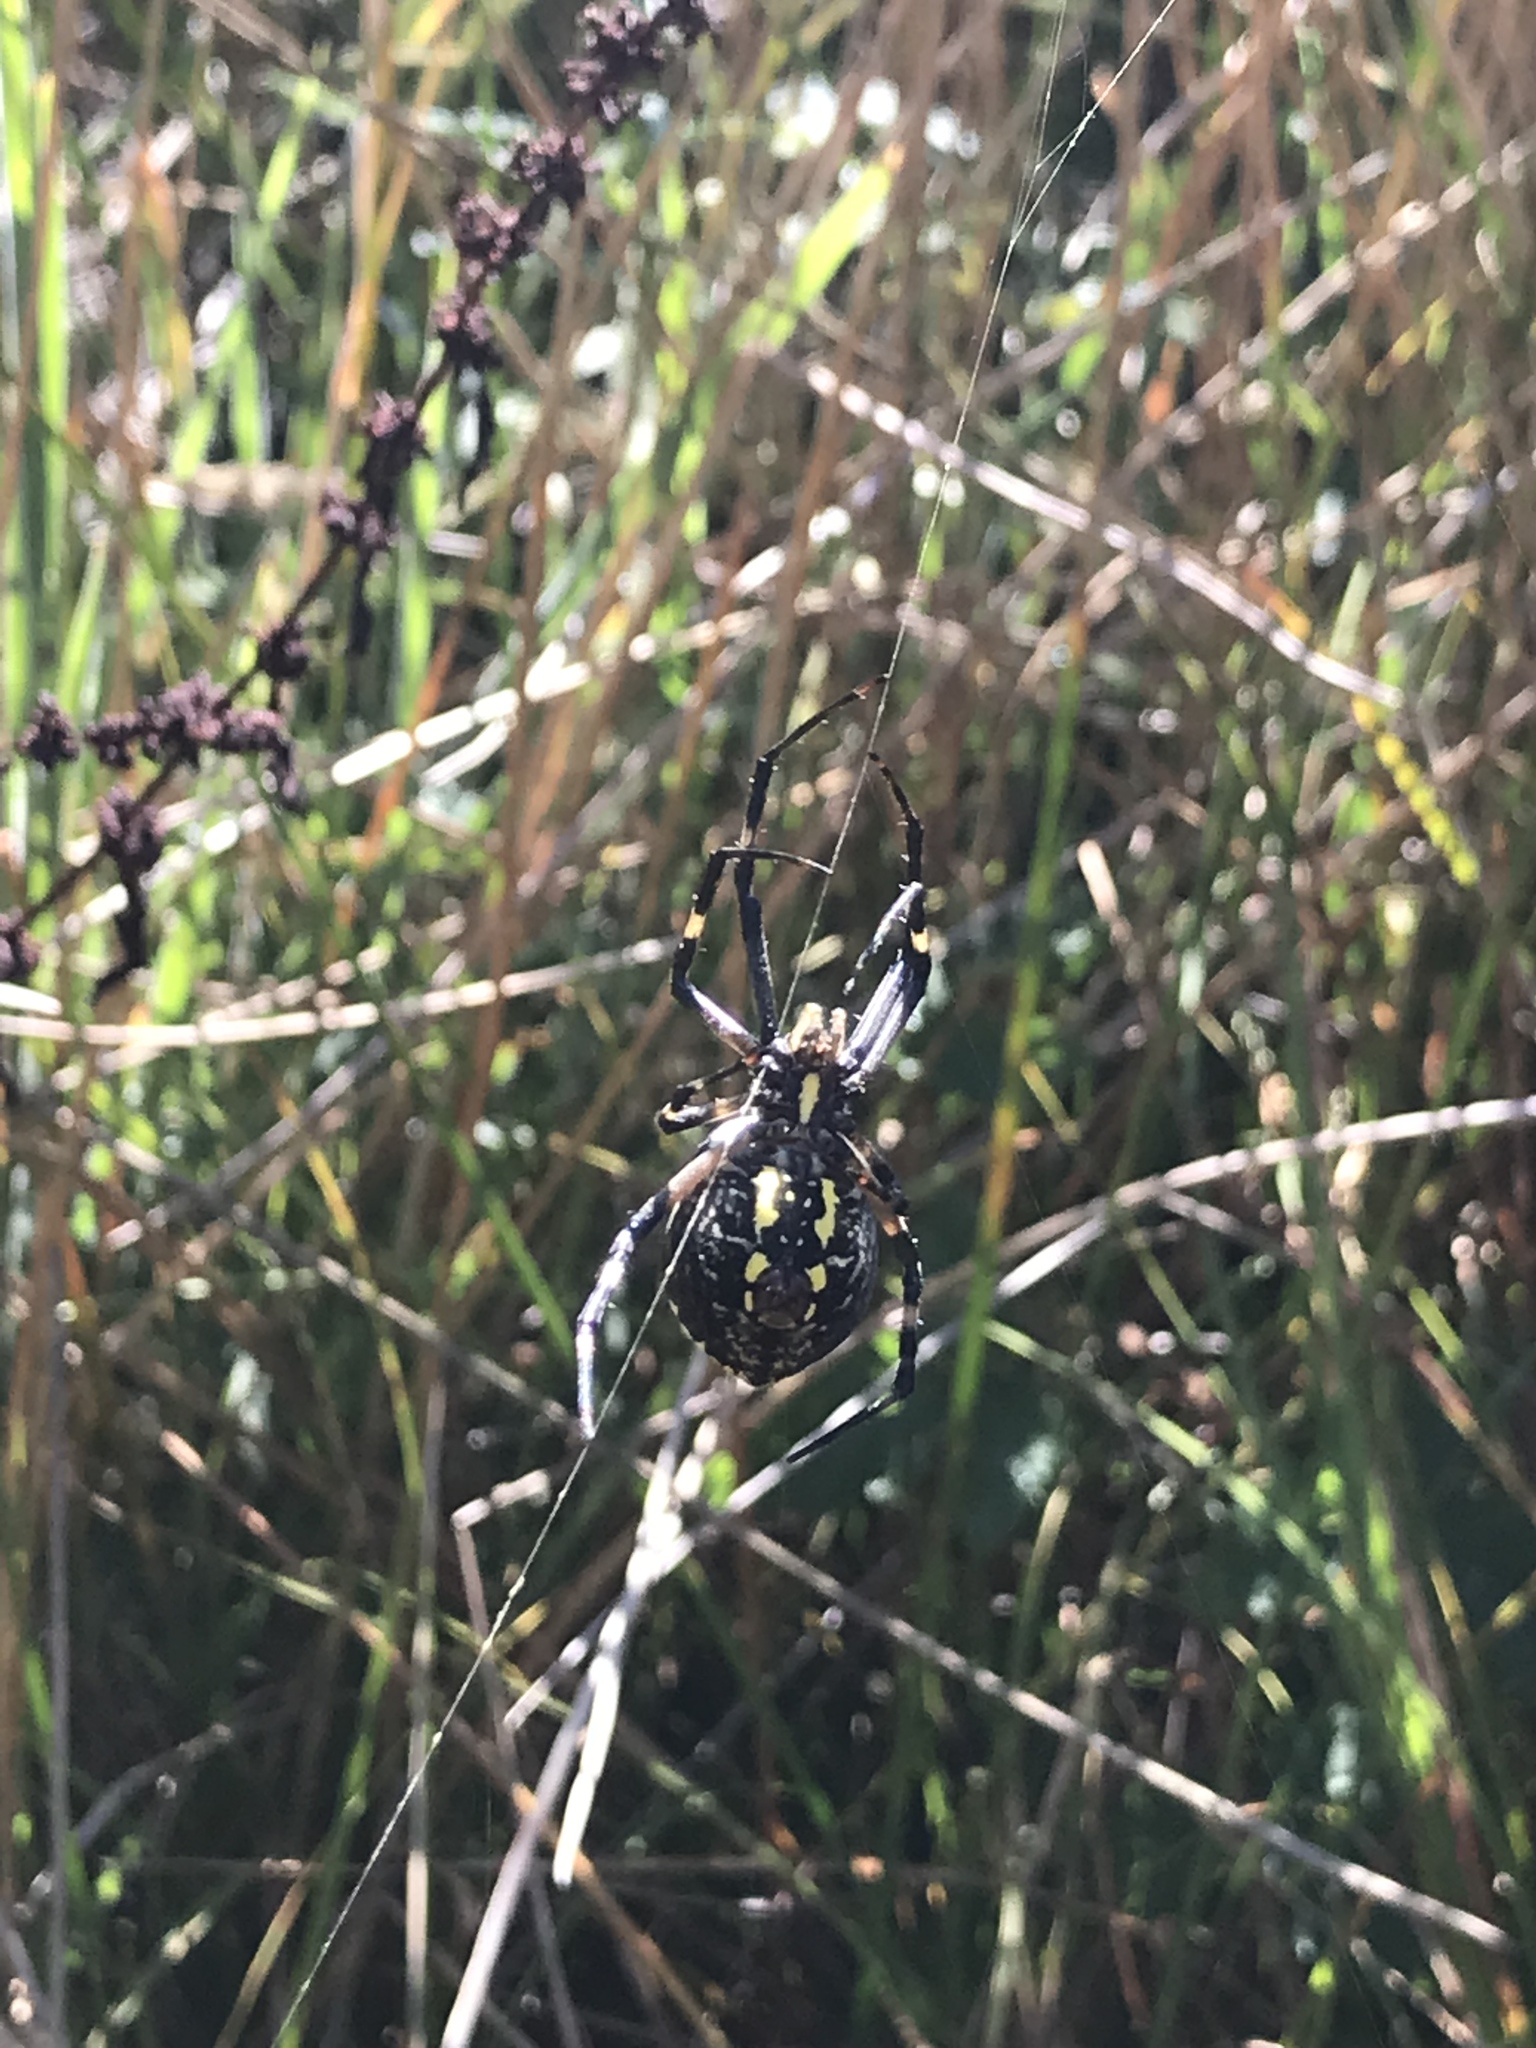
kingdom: Animalia
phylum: Arthropoda
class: Arachnida
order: Araneae
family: Araneidae
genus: Argiope
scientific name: Argiope aurantia
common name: Orb weavers
